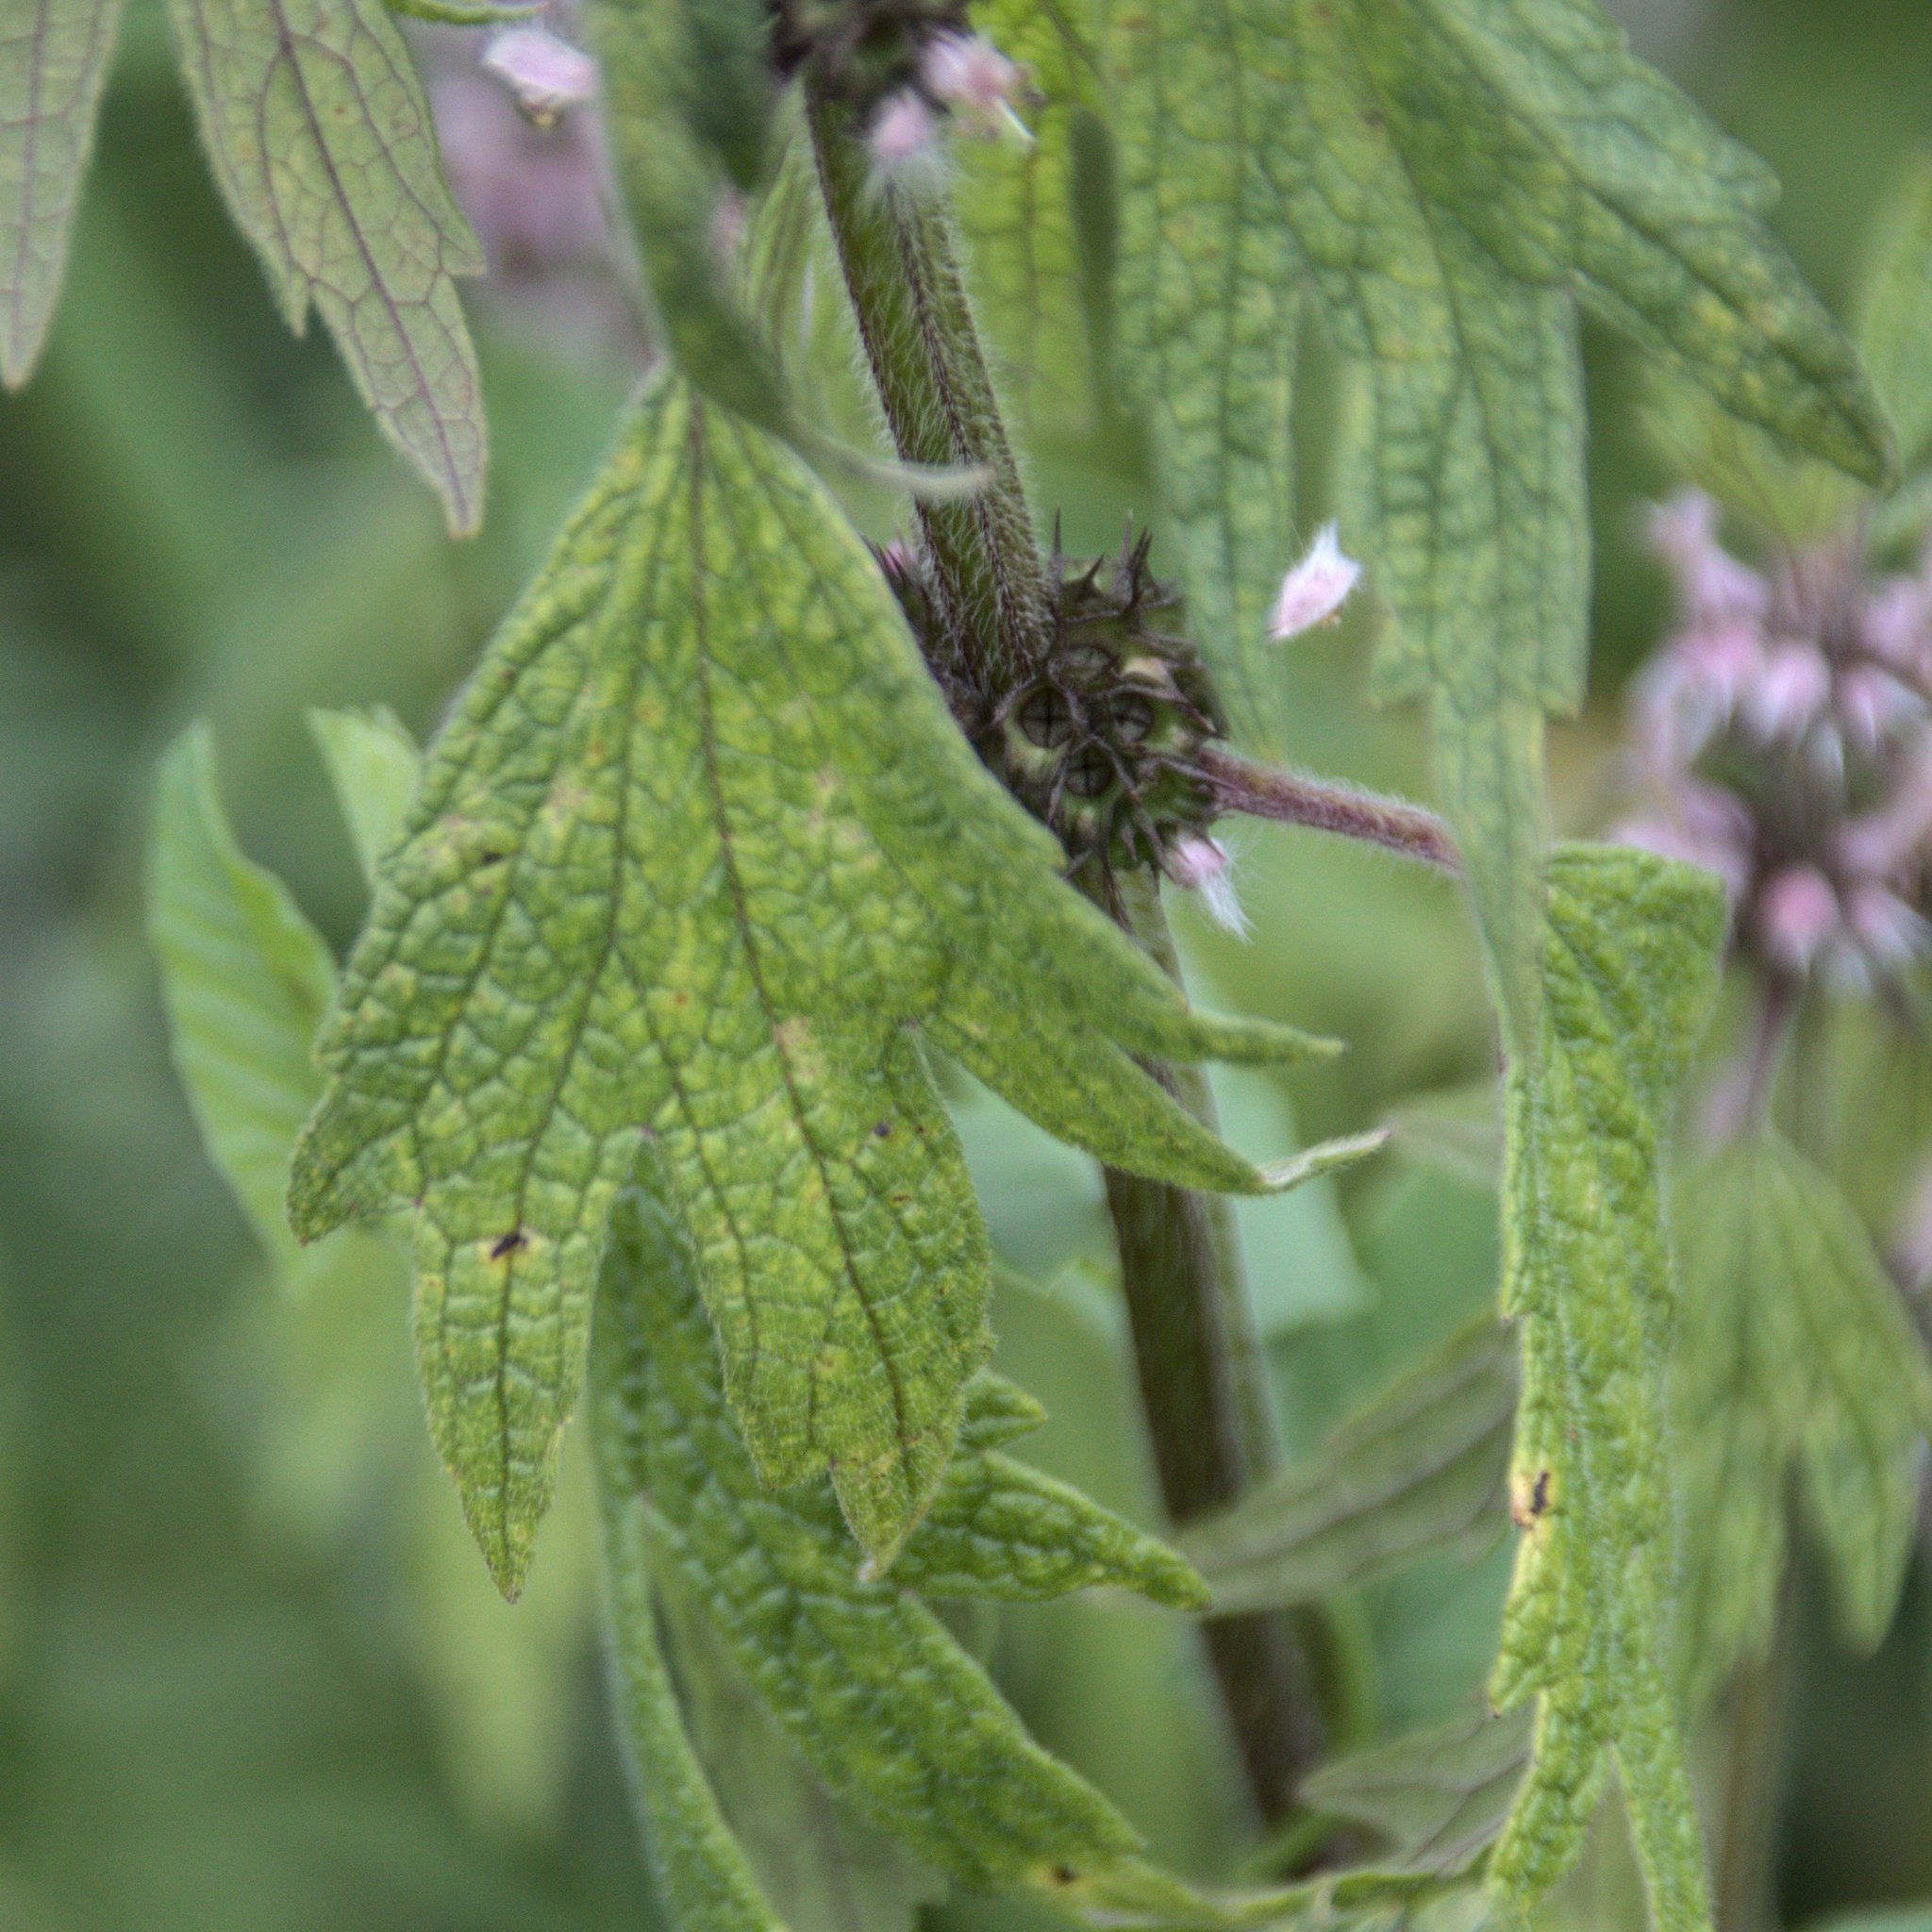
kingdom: Plantae
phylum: Tracheophyta
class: Magnoliopsida
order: Lamiales
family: Lamiaceae
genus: Leonurus
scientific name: Leonurus quinquelobatus
